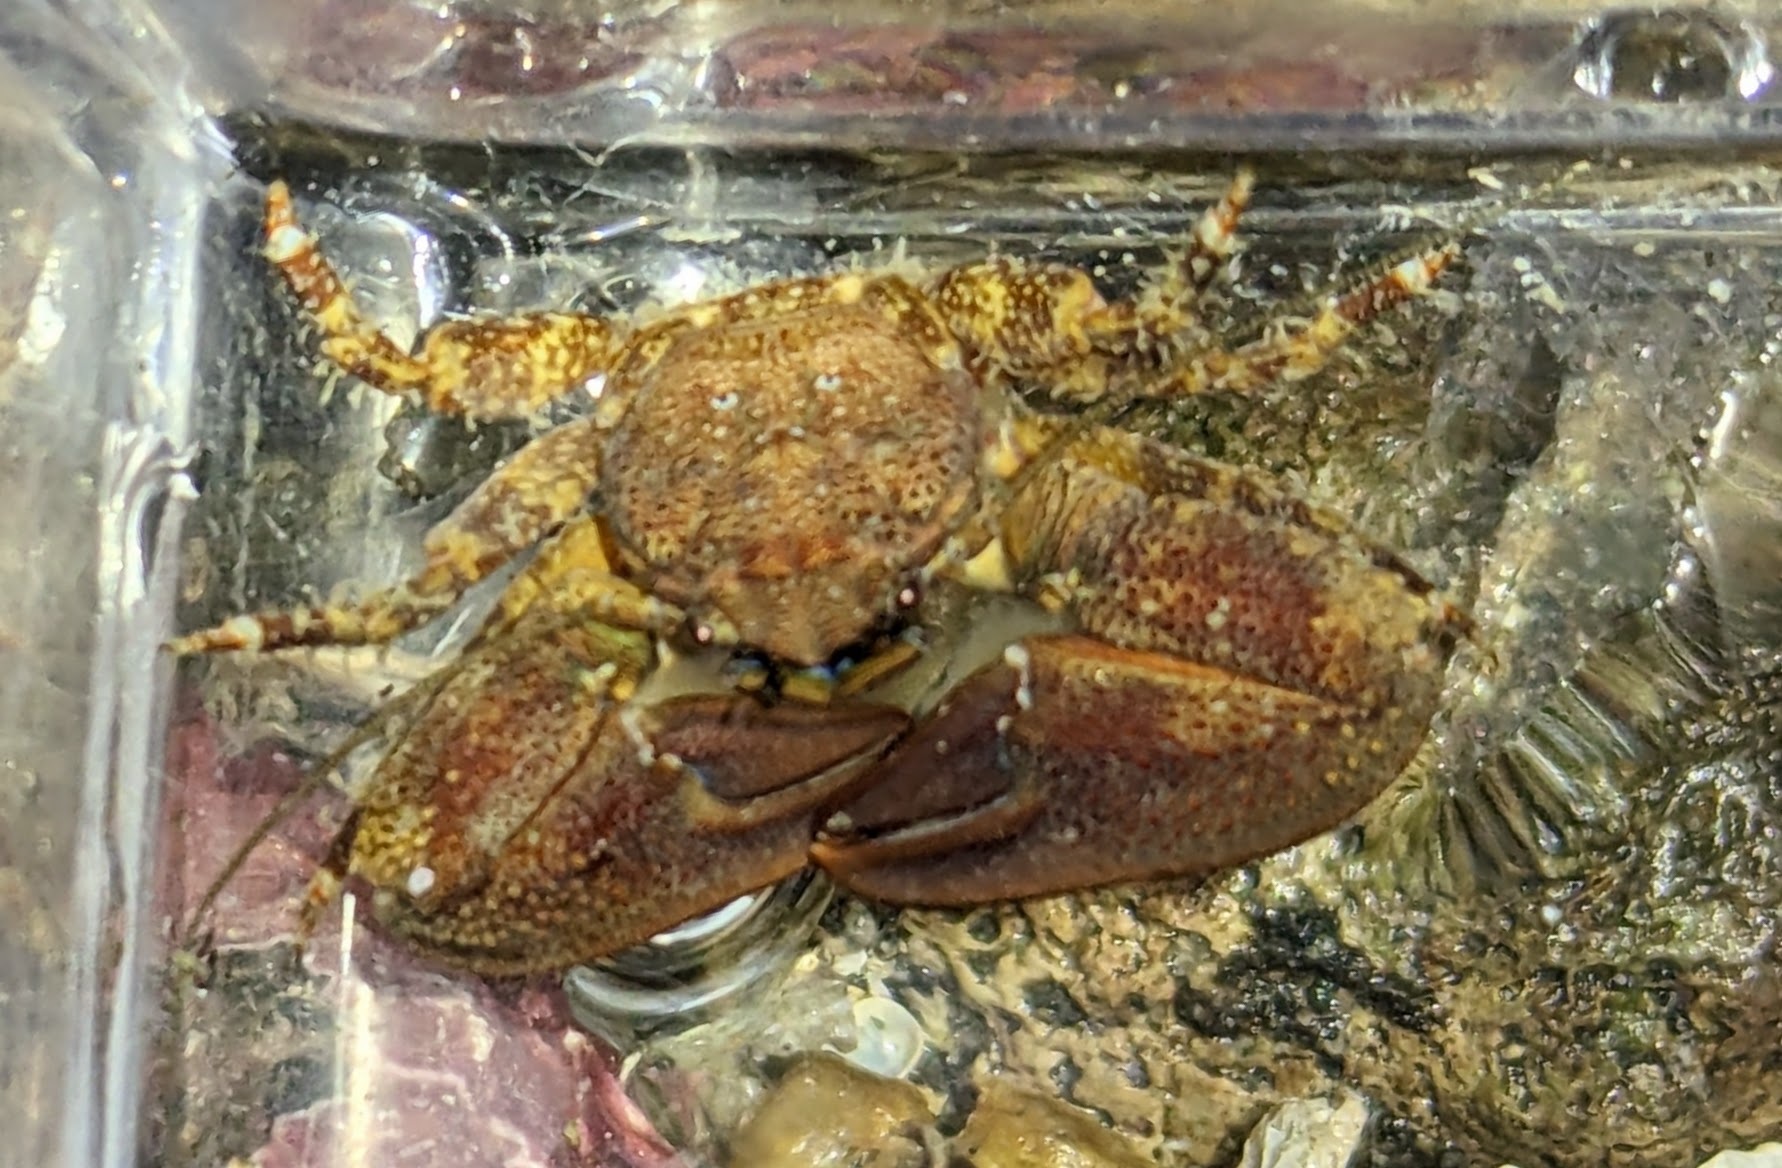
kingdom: Animalia
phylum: Arthropoda
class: Malacostraca
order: Decapoda
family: Porcellanidae
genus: Petrolisthes
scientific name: Petrolisthes eriomerus
